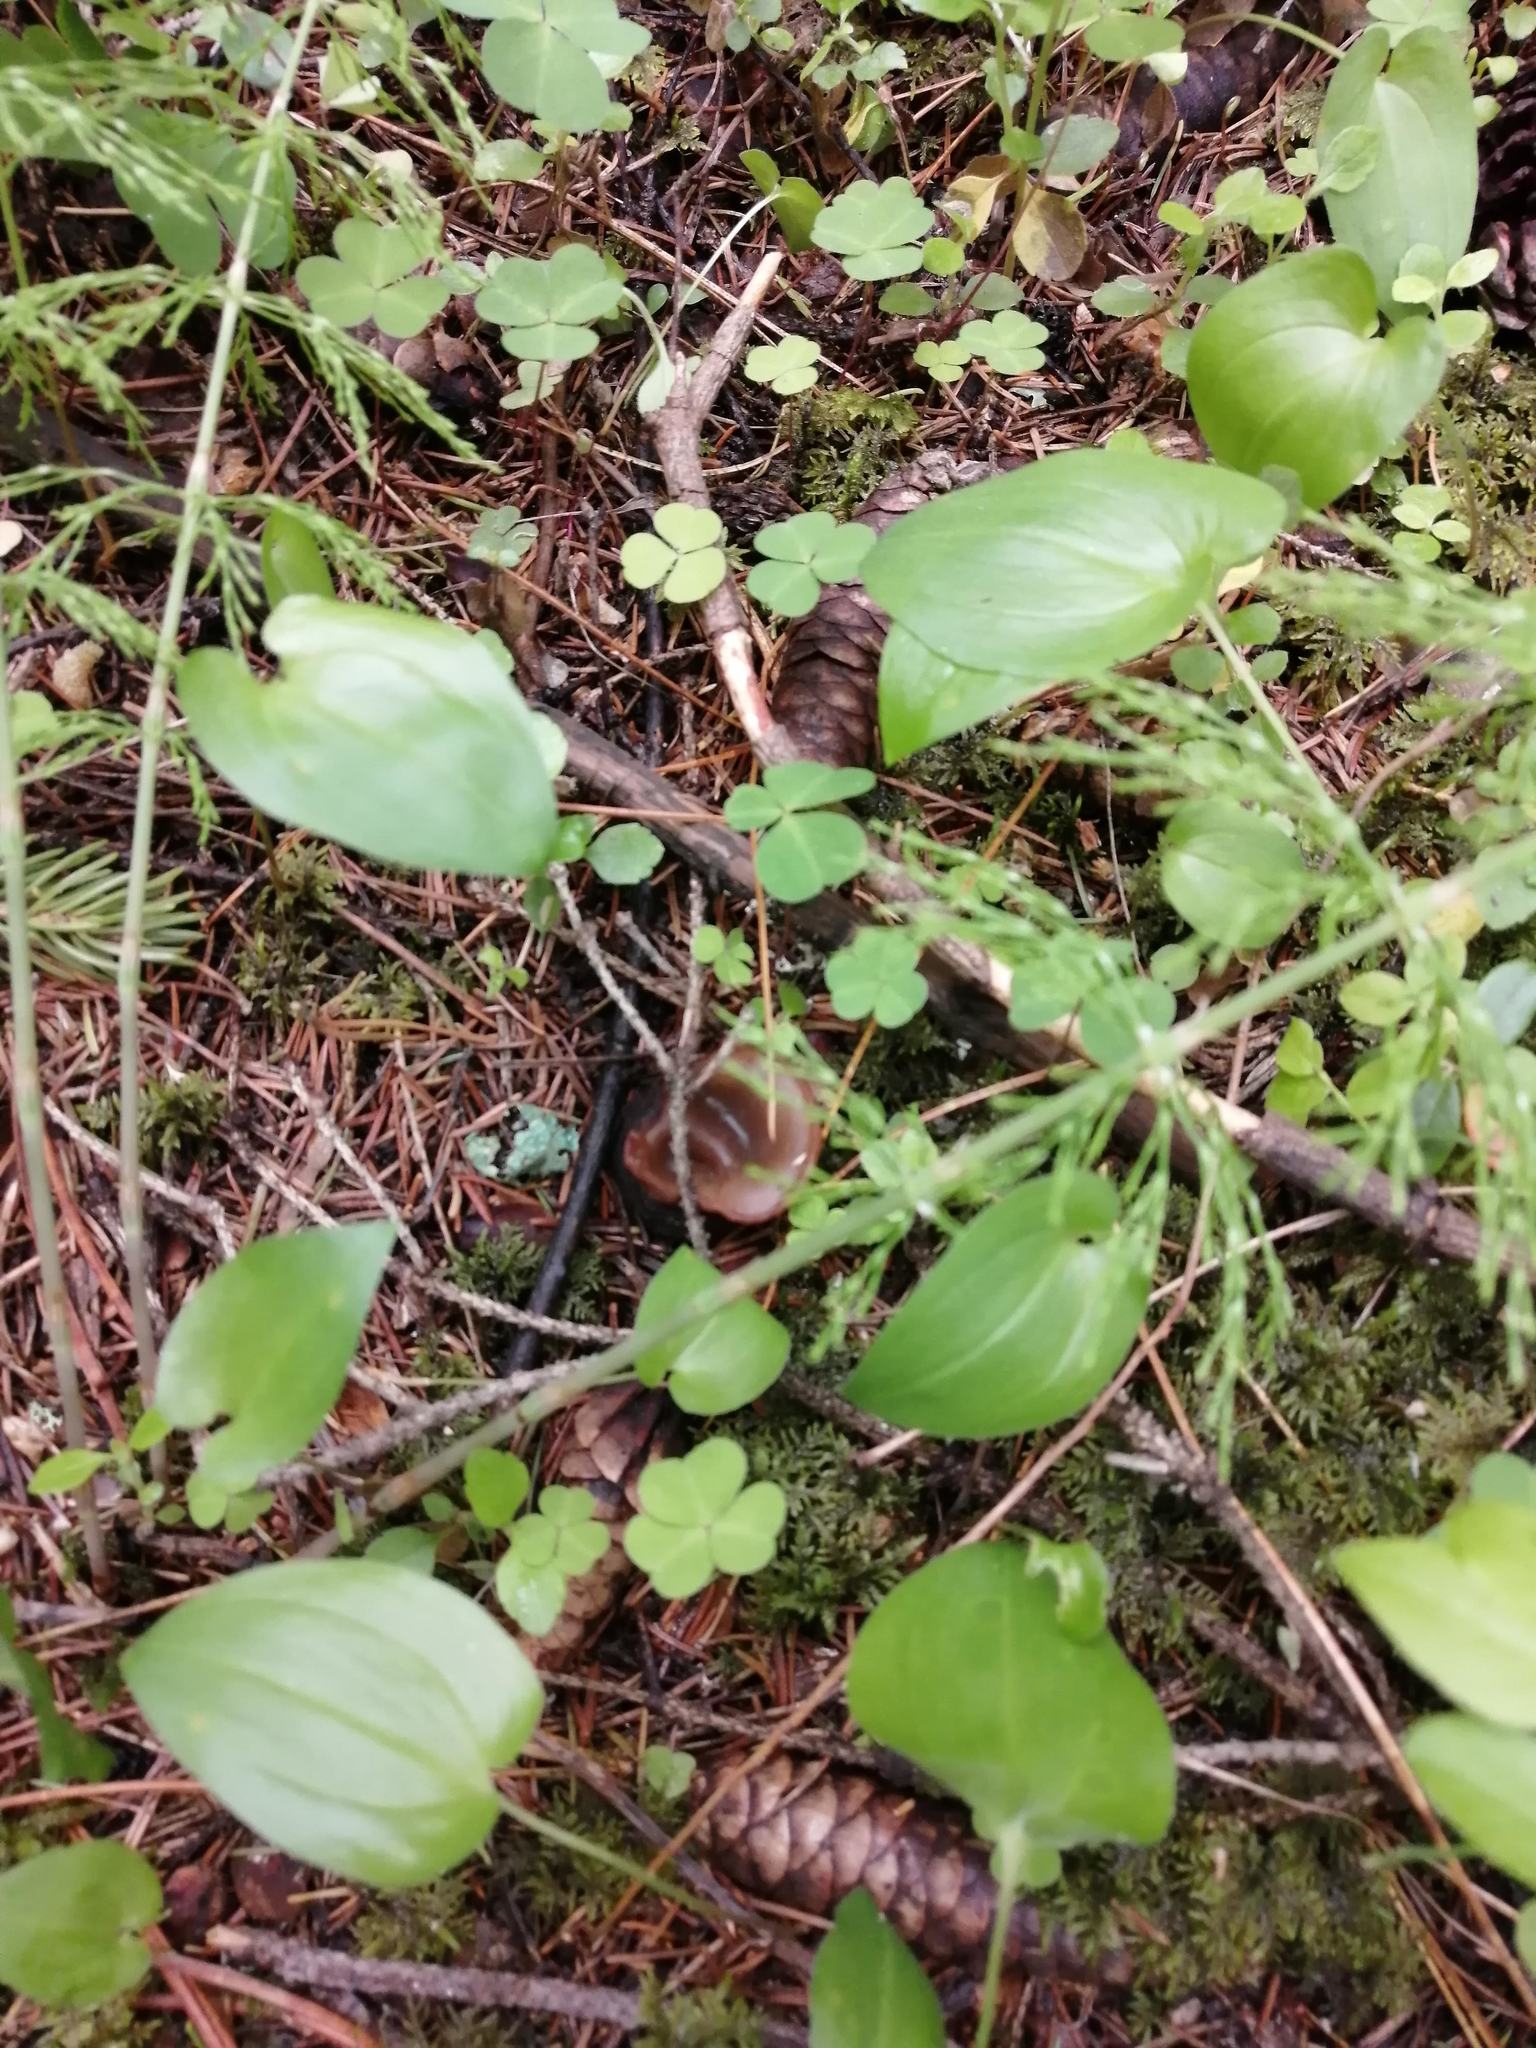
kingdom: Fungi
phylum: Ascomycota
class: Pezizomycetes
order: Pezizales
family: Sarcosomataceae
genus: Sarcosoma
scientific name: Sarcosoma globosum
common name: Charred-pancake cup
